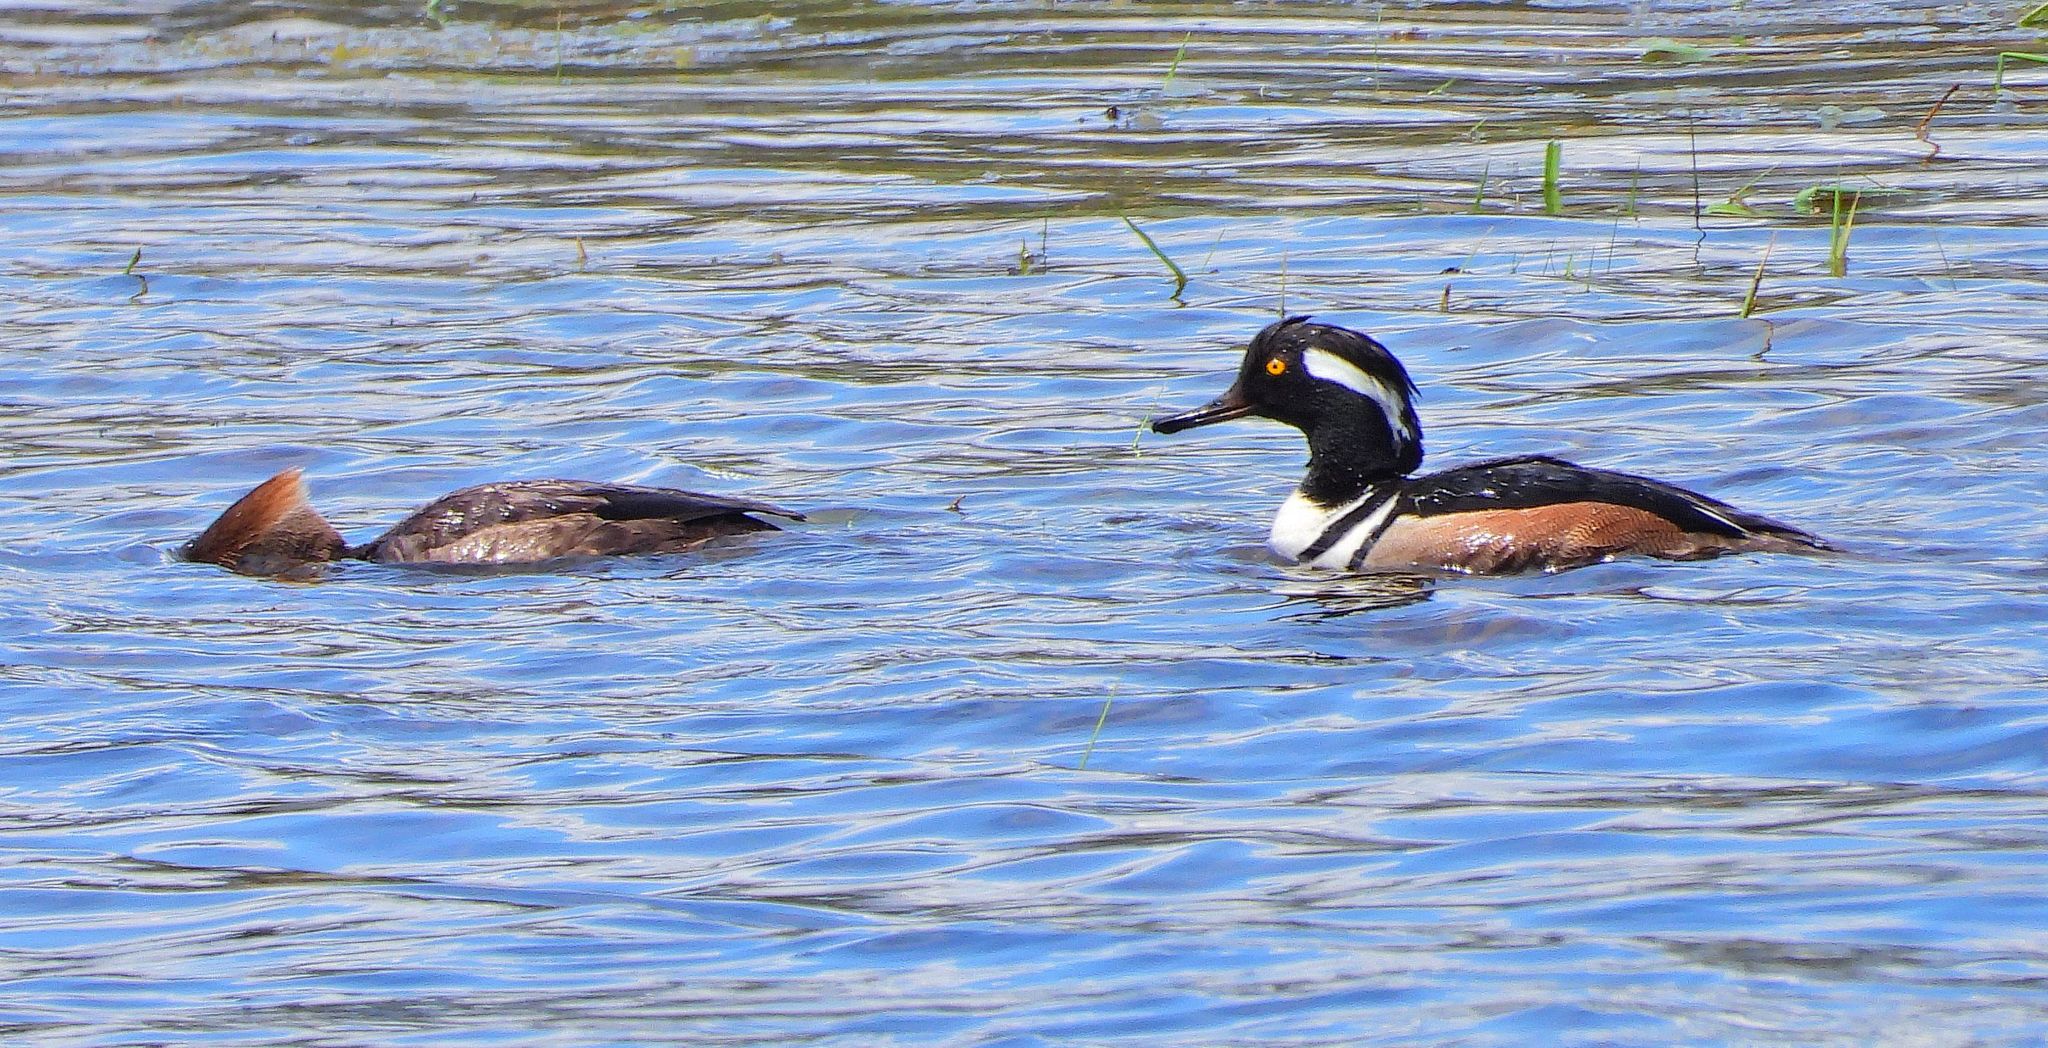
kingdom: Animalia
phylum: Chordata
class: Aves
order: Anseriformes
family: Anatidae
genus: Lophodytes
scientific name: Lophodytes cucullatus
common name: Hooded merganser
